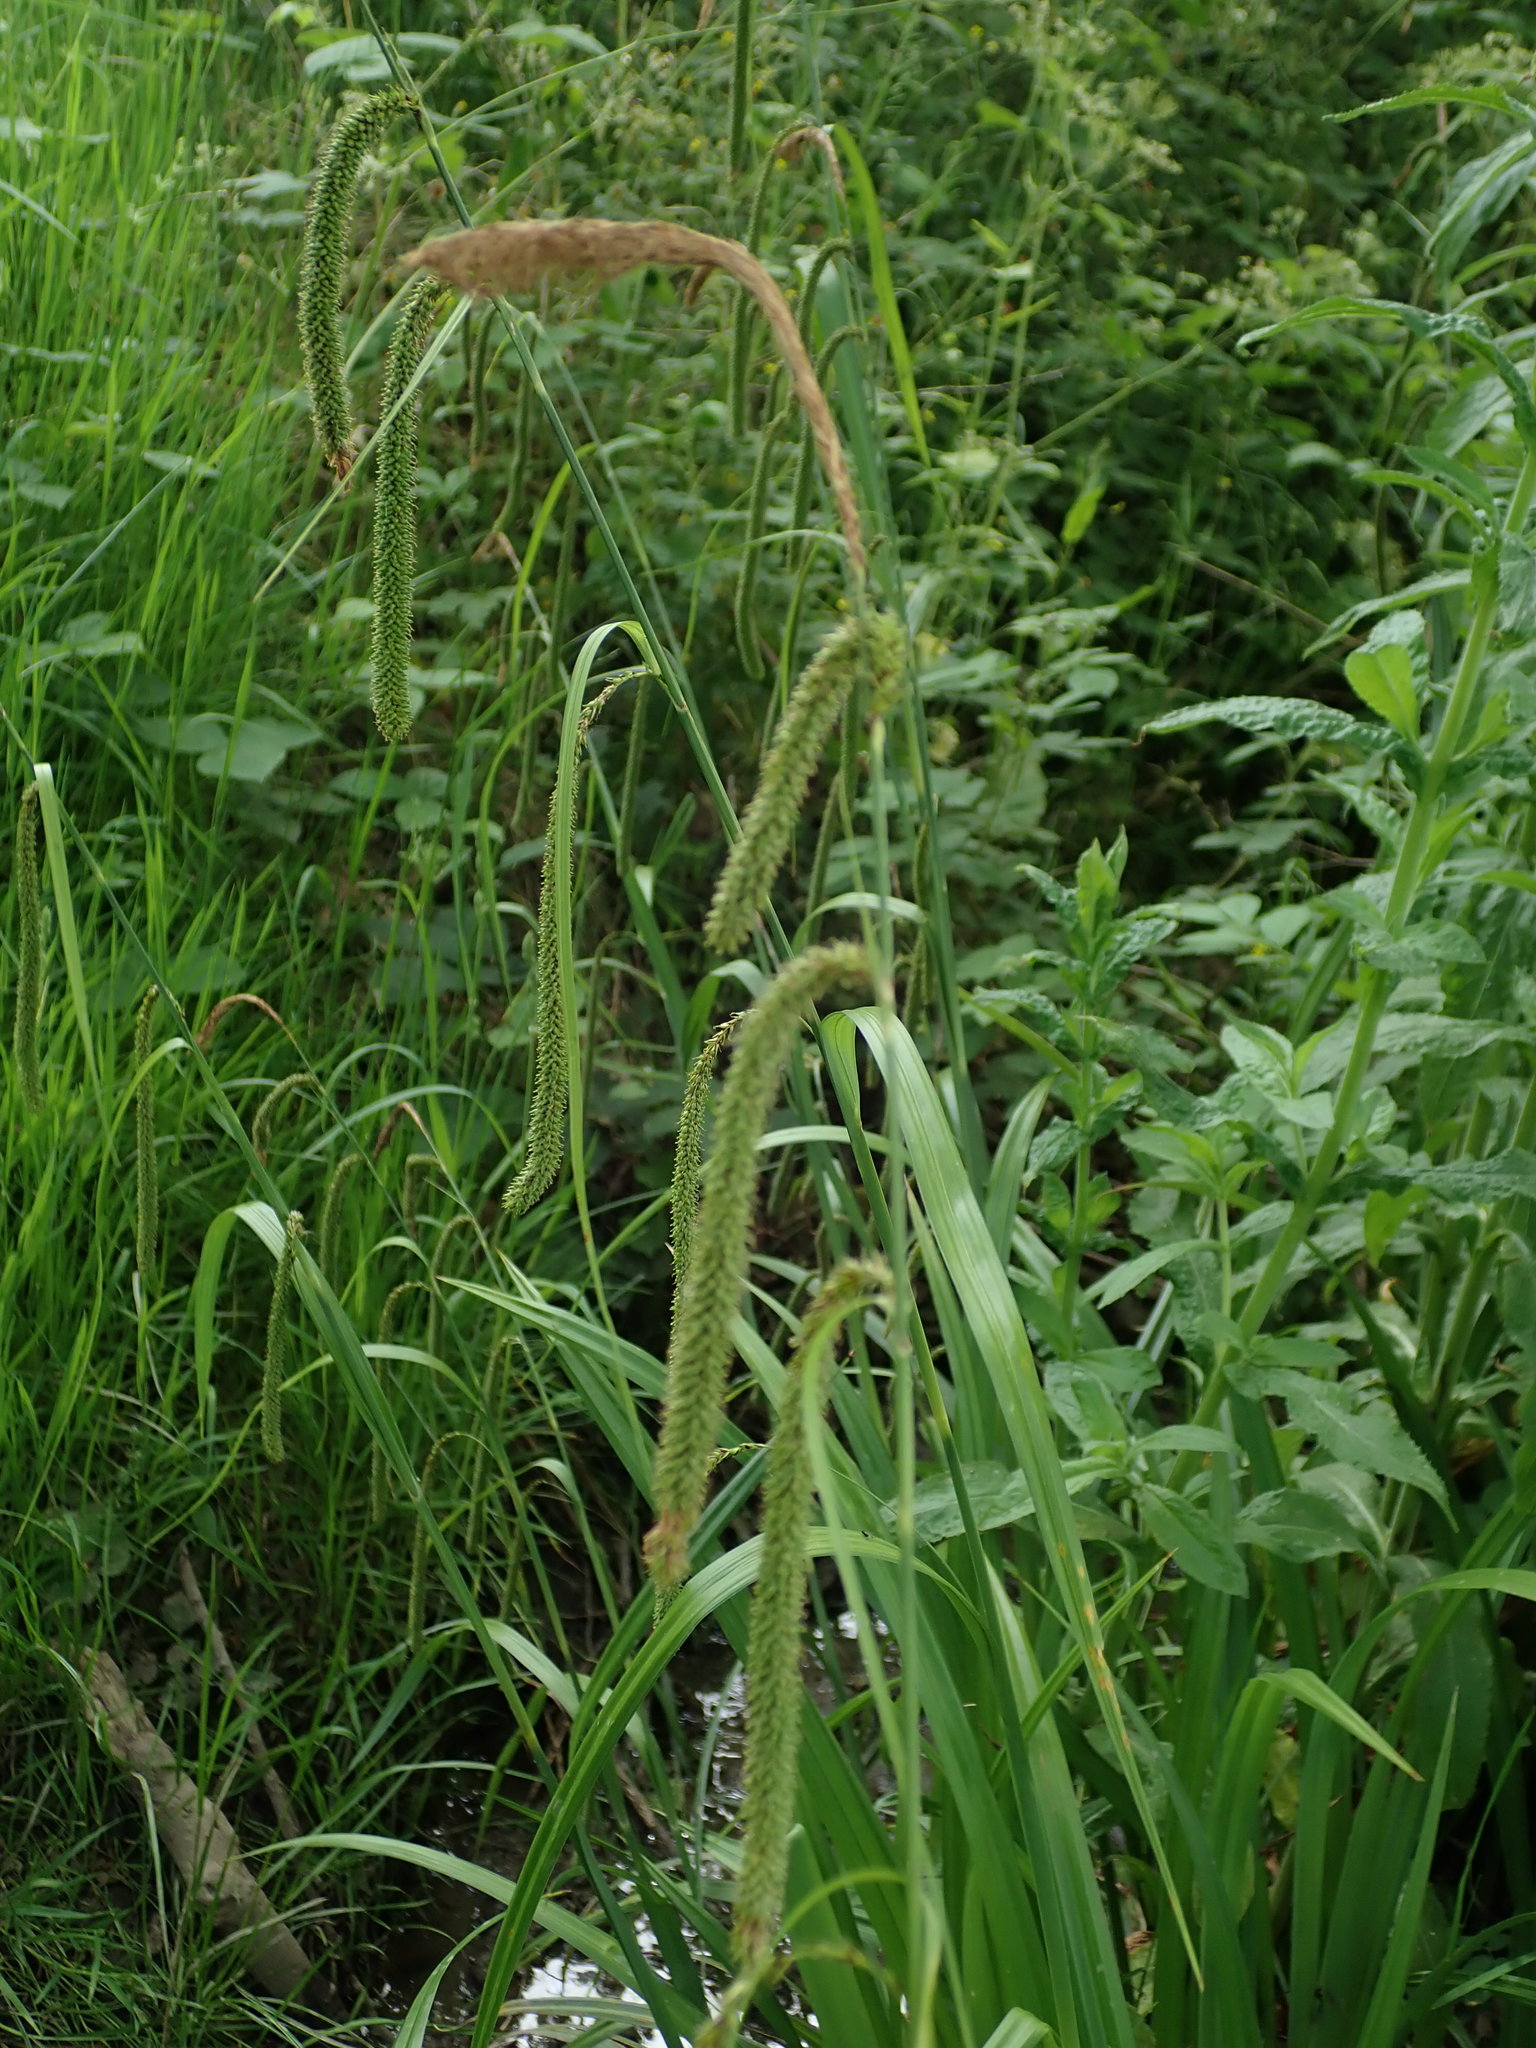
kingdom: Plantae
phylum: Tracheophyta
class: Liliopsida
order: Poales
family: Cyperaceae
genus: Carex
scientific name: Carex pendula
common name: Pendulous sedge
